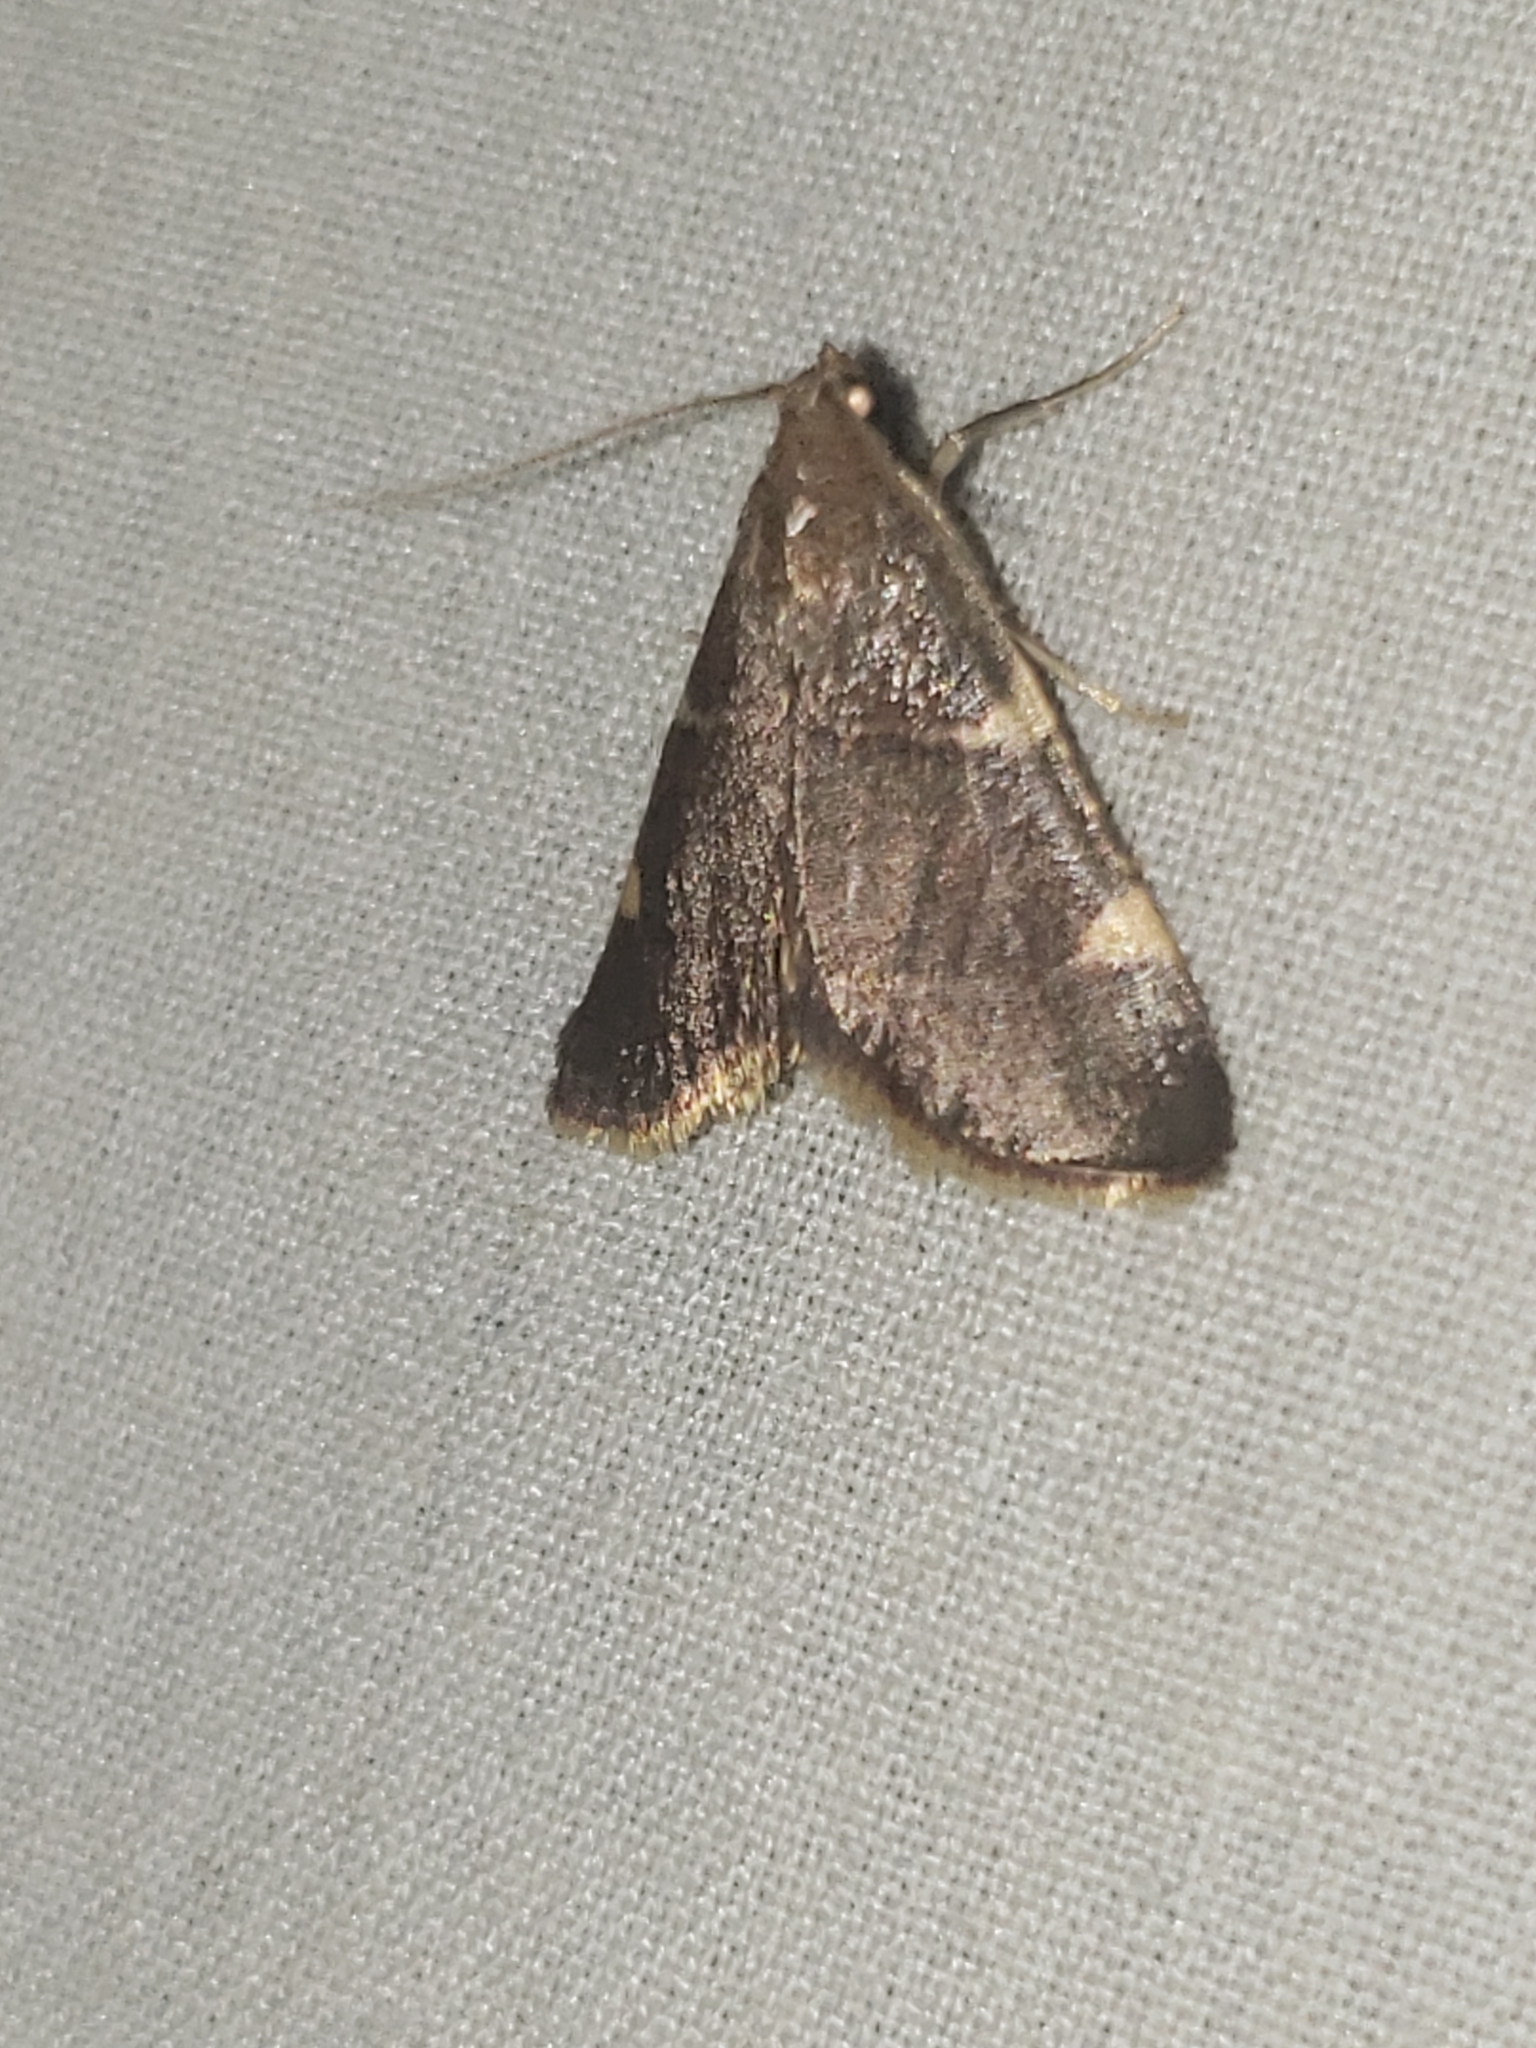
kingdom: Animalia
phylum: Arthropoda
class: Insecta
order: Lepidoptera
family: Pyralidae
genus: Hypsopygia
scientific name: Hypsopygia olinalis
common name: Yellow-fringed dolichomia moth
